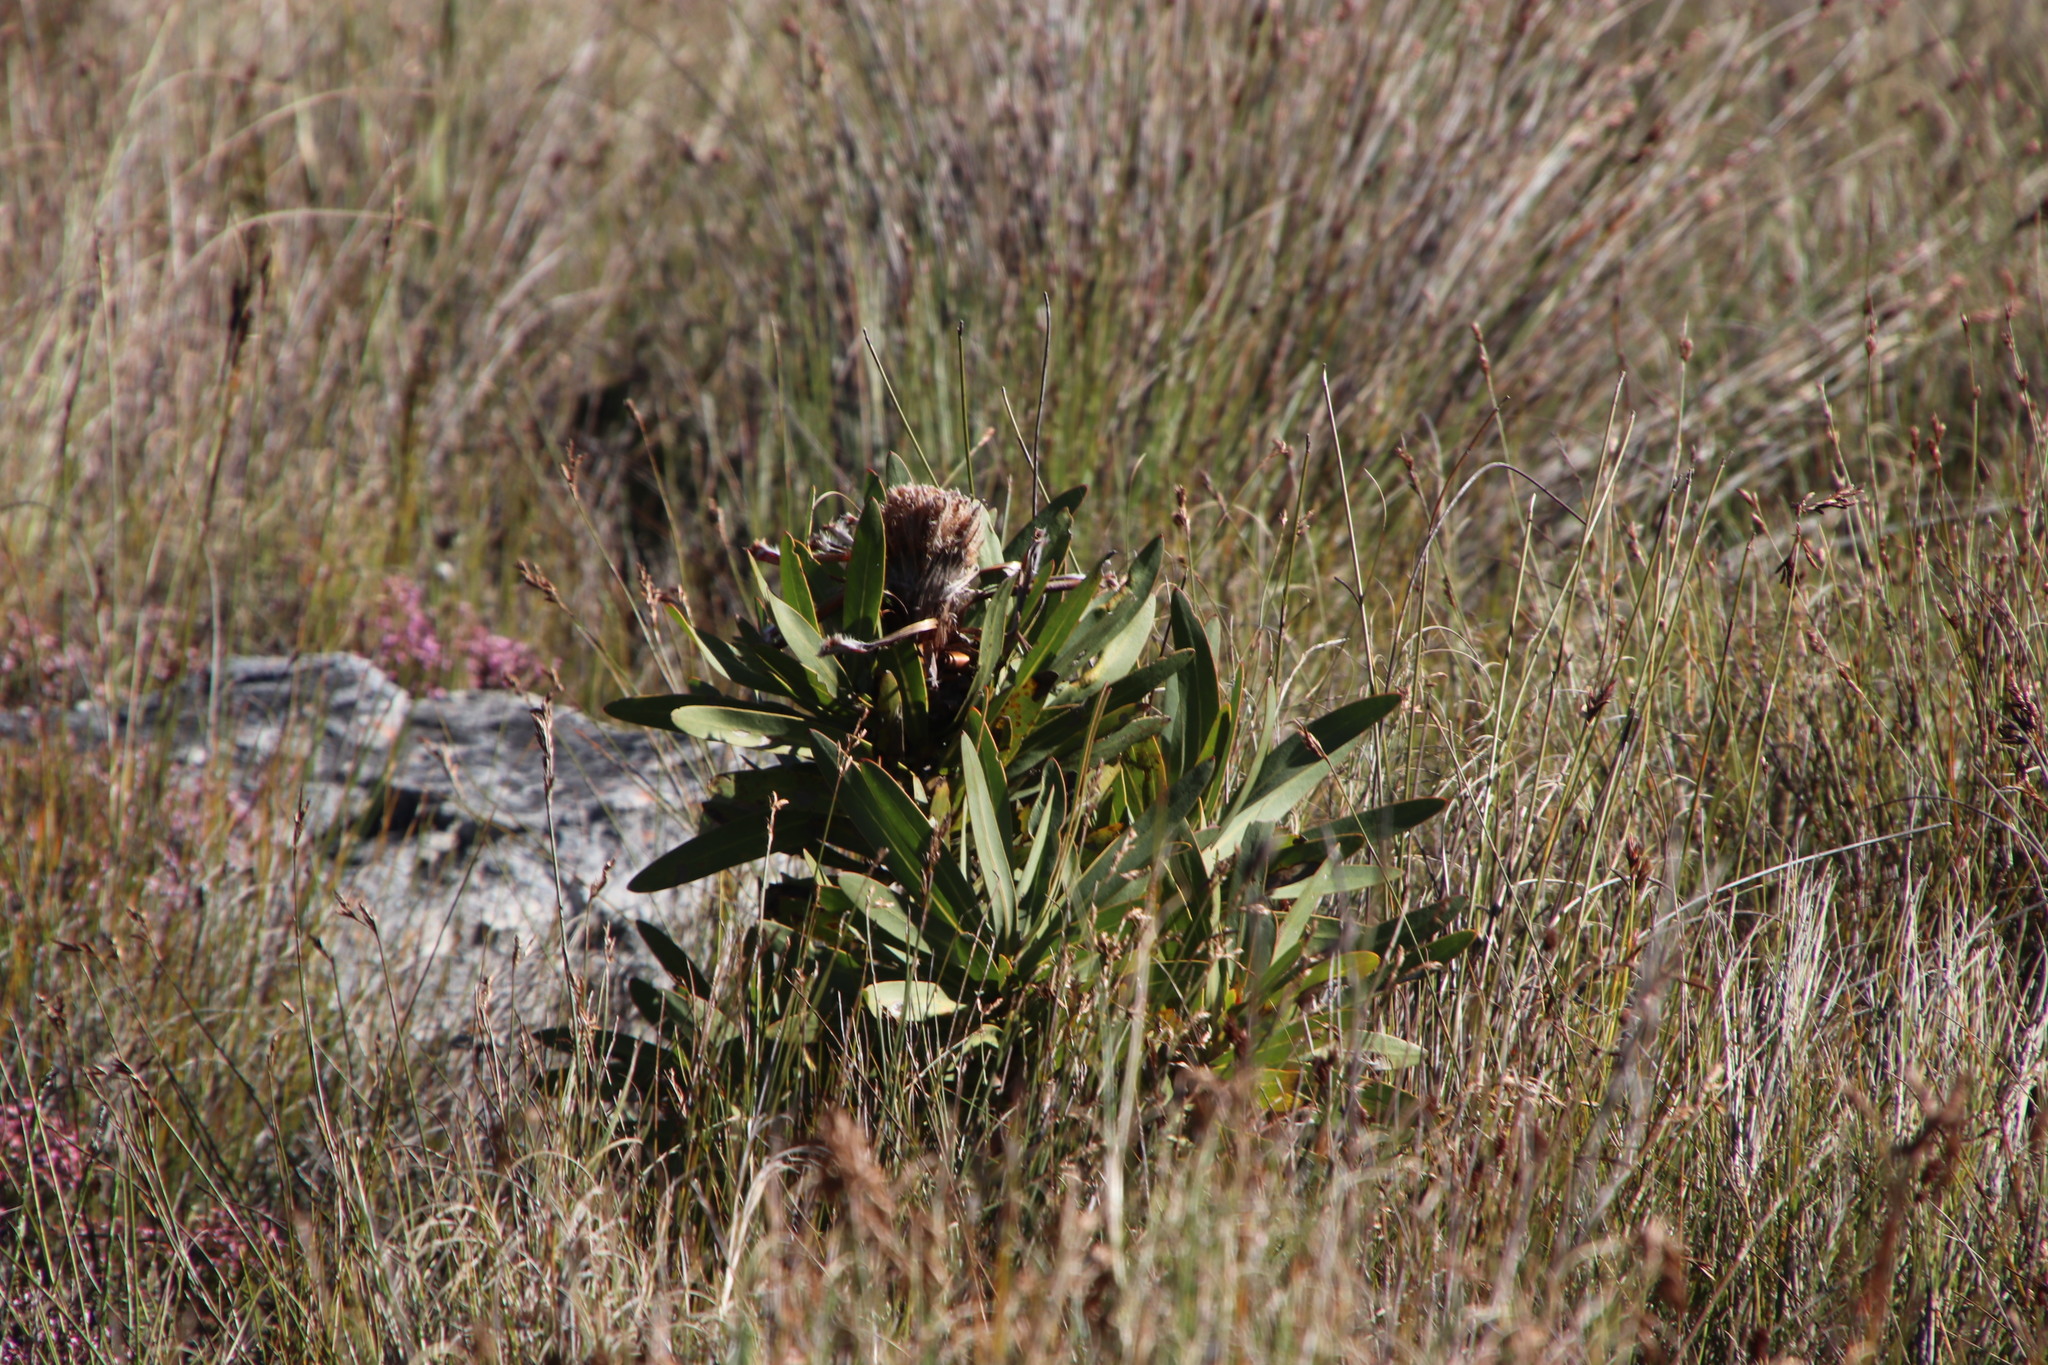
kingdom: Plantae
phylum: Tracheophyta
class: Magnoliopsida
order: Proteales
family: Proteaceae
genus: Protea
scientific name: Protea neriifolia
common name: Blue sugarbush
